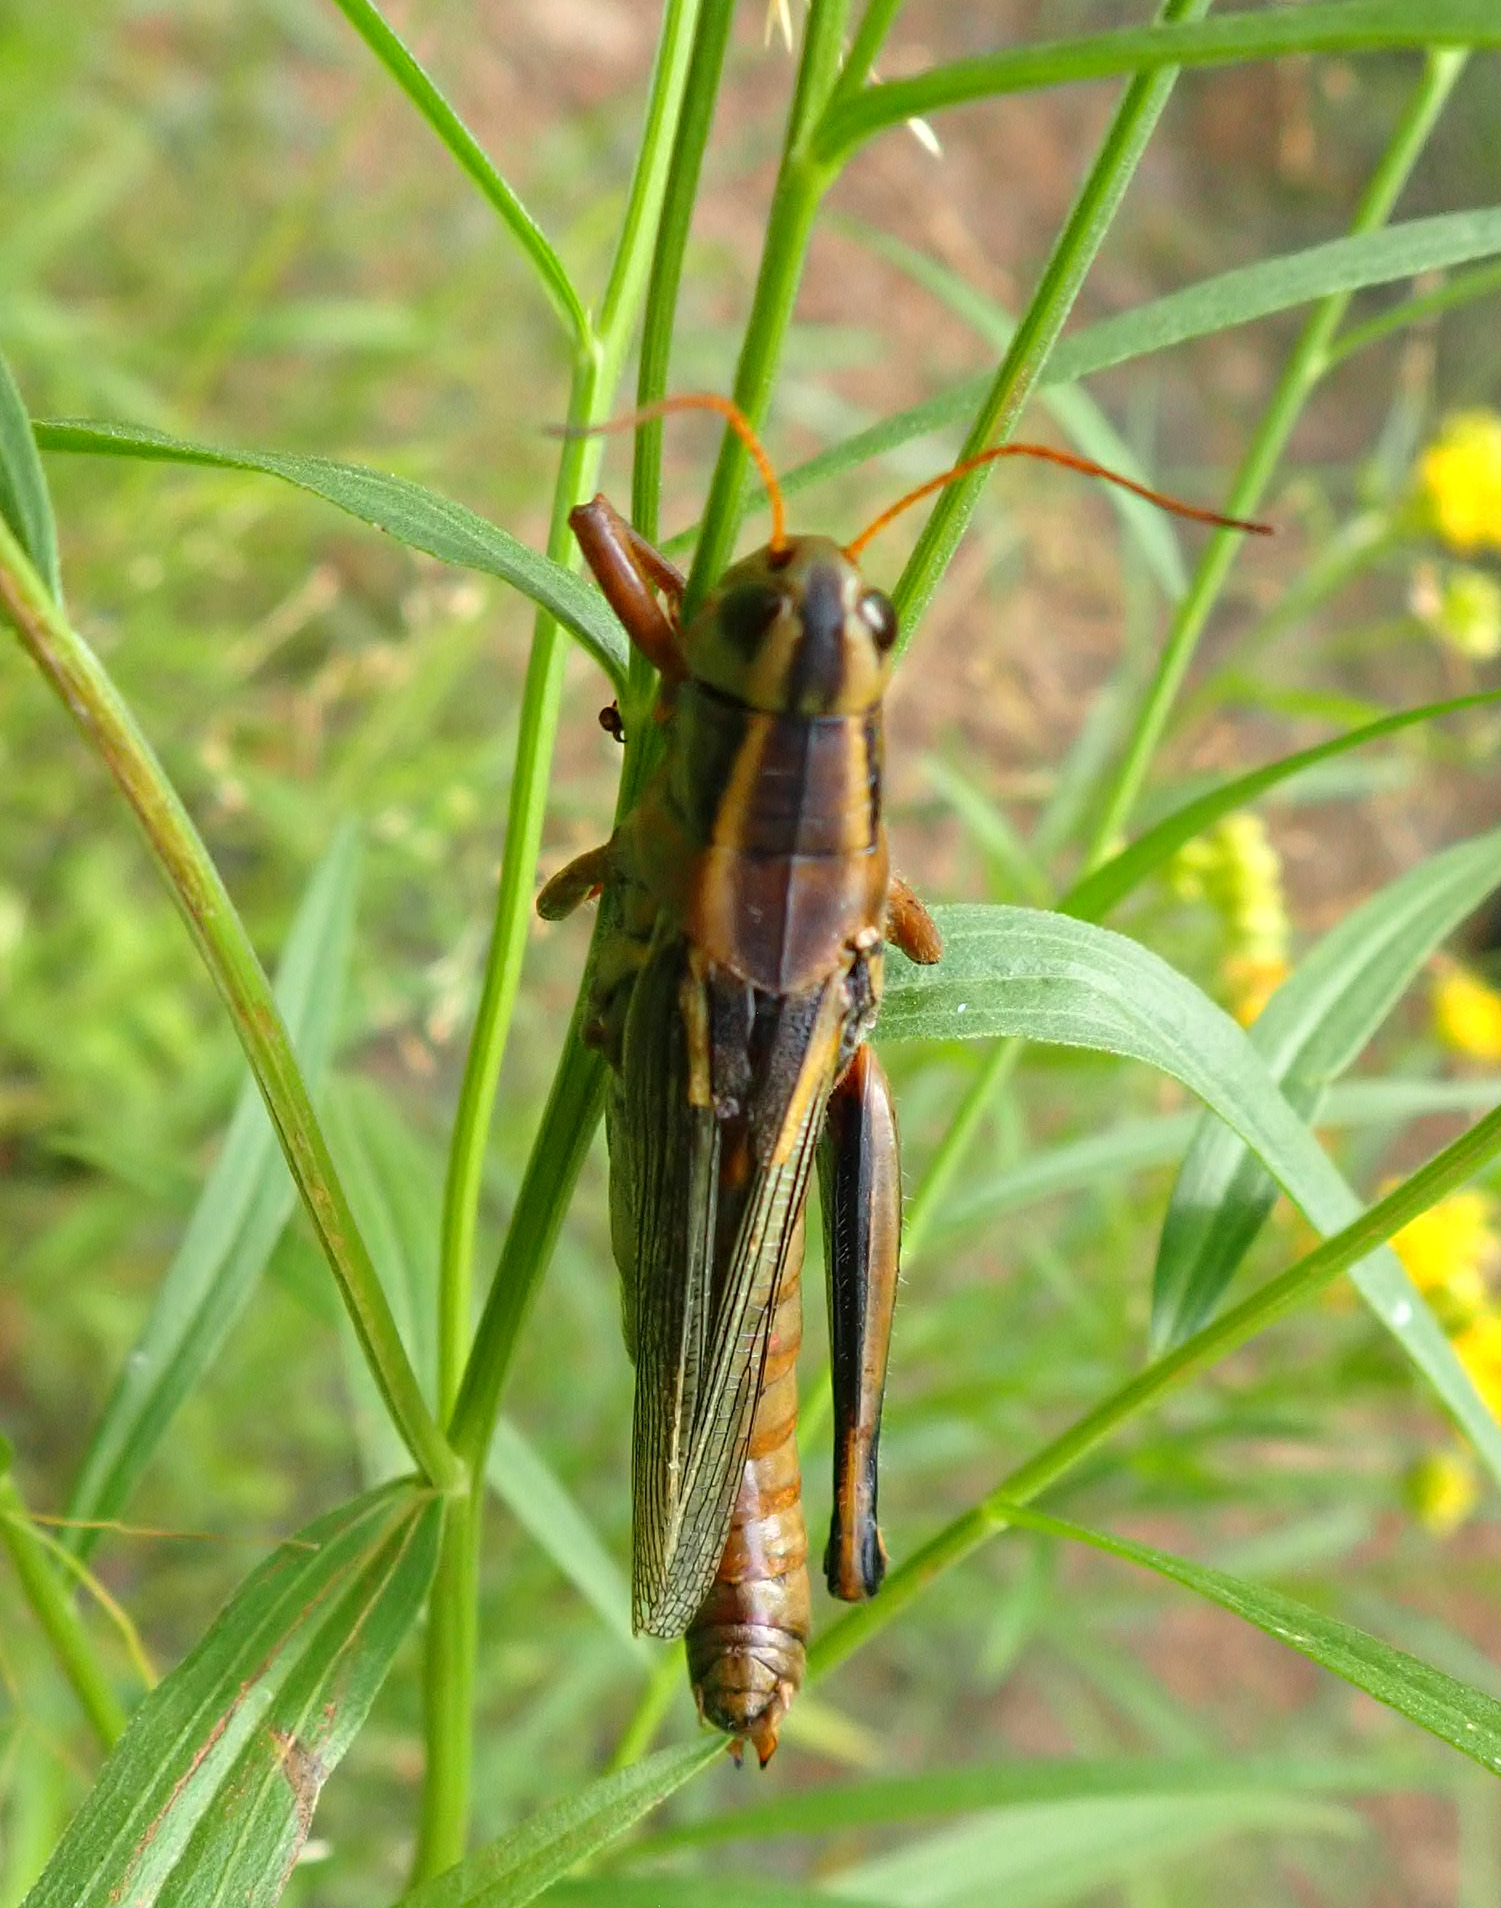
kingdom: Animalia
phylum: Arthropoda
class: Insecta
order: Orthoptera
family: Acrididae
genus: Melanoplus
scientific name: Melanoplus bivittatus
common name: Two-striped grasshopper
